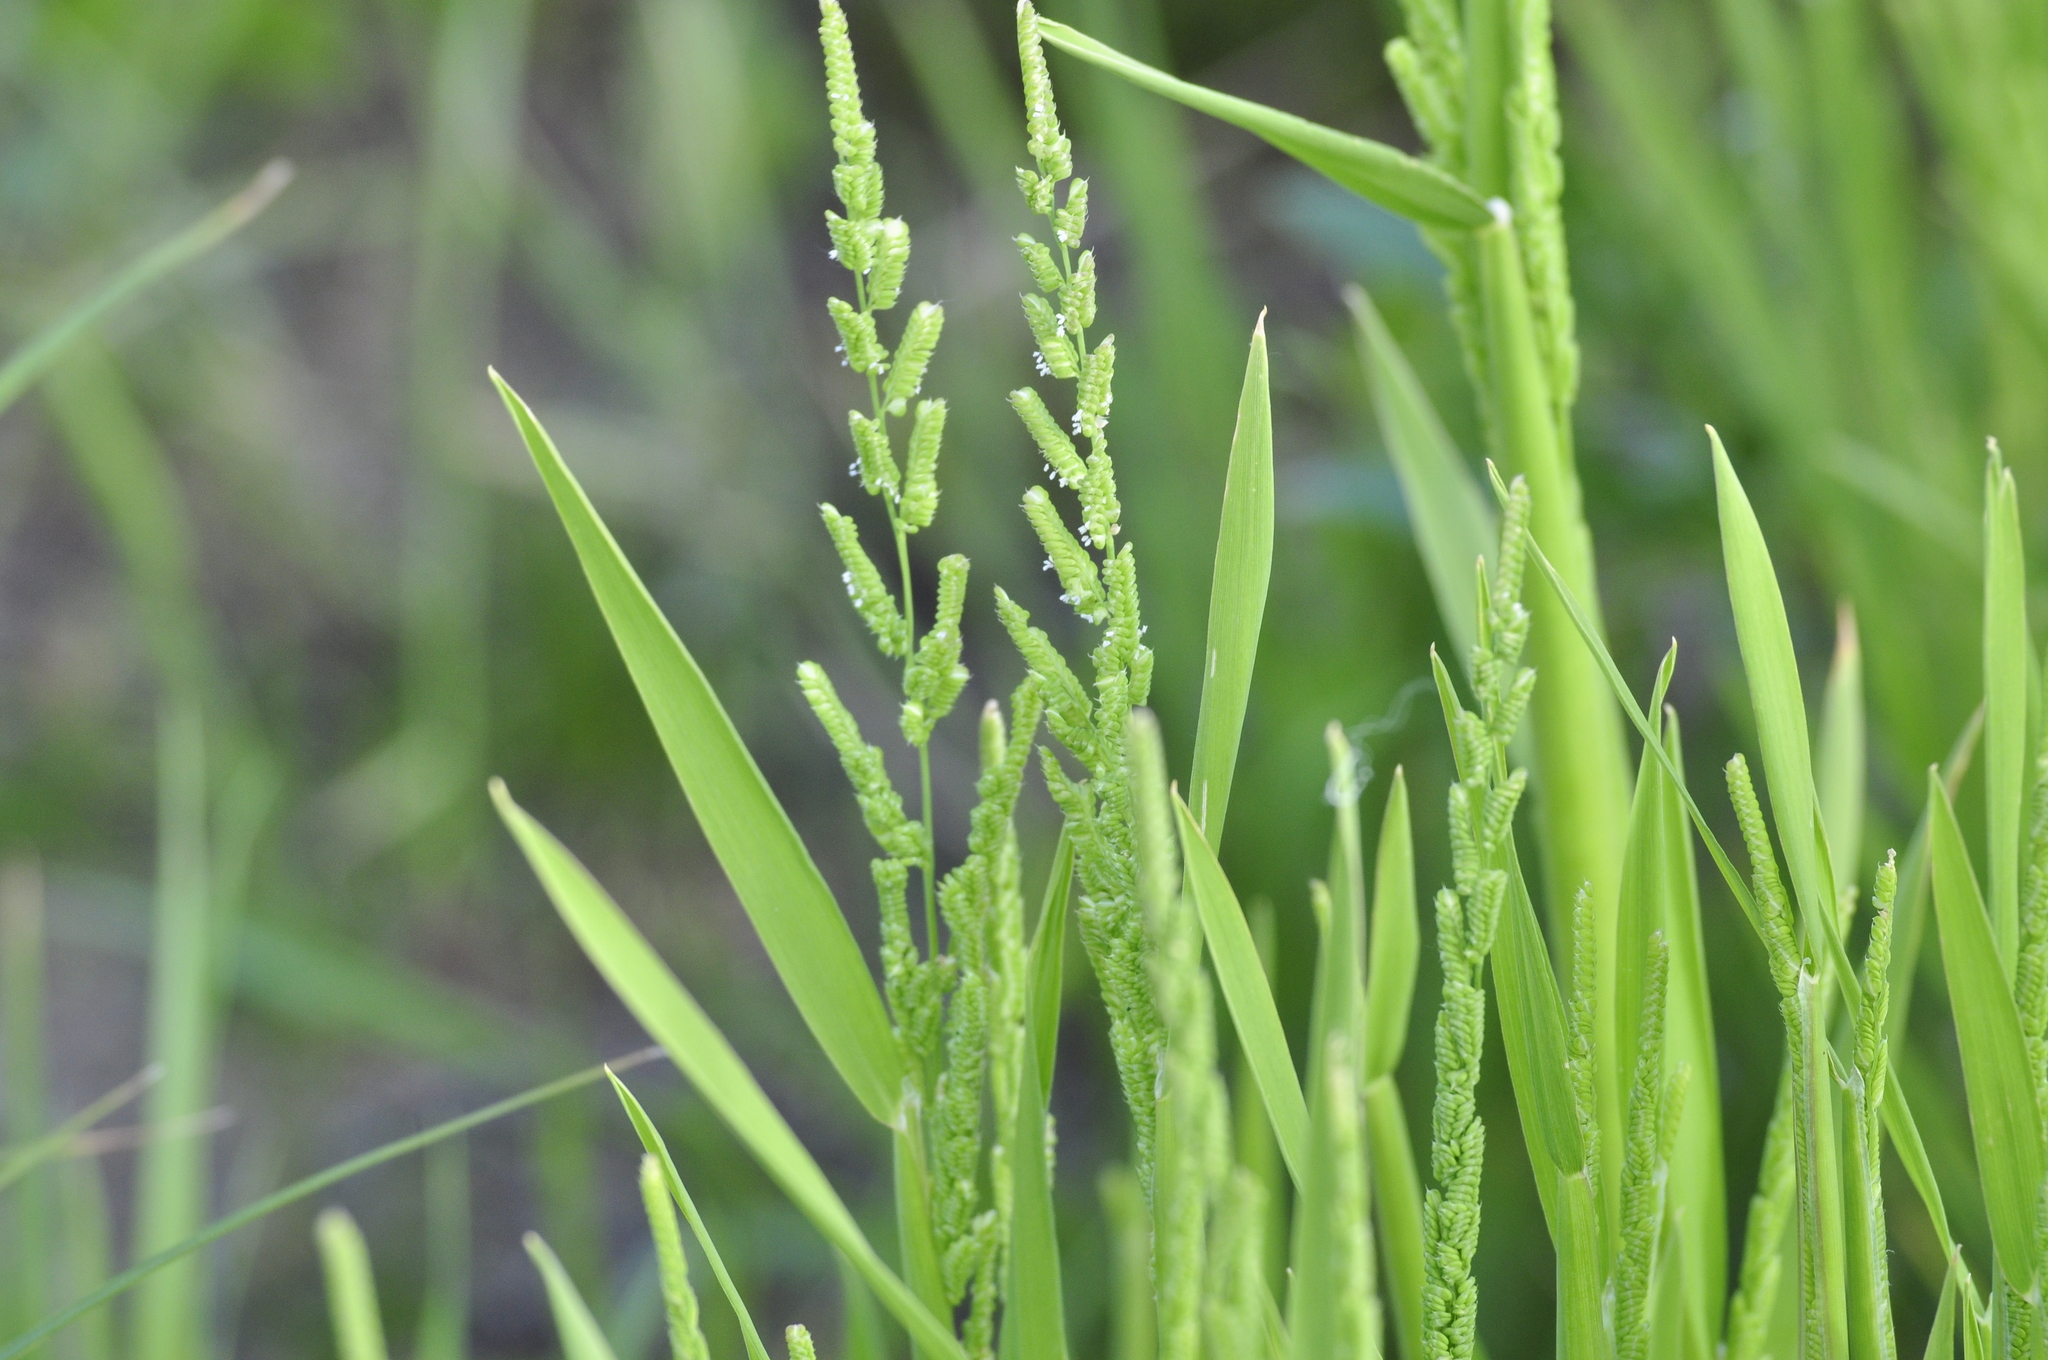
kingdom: Plantae
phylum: Tracheophyta
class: Liliopsida
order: Poales
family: Poaceae
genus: Beckmannia
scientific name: Beckmannia syzigachne
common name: American slough-grass
